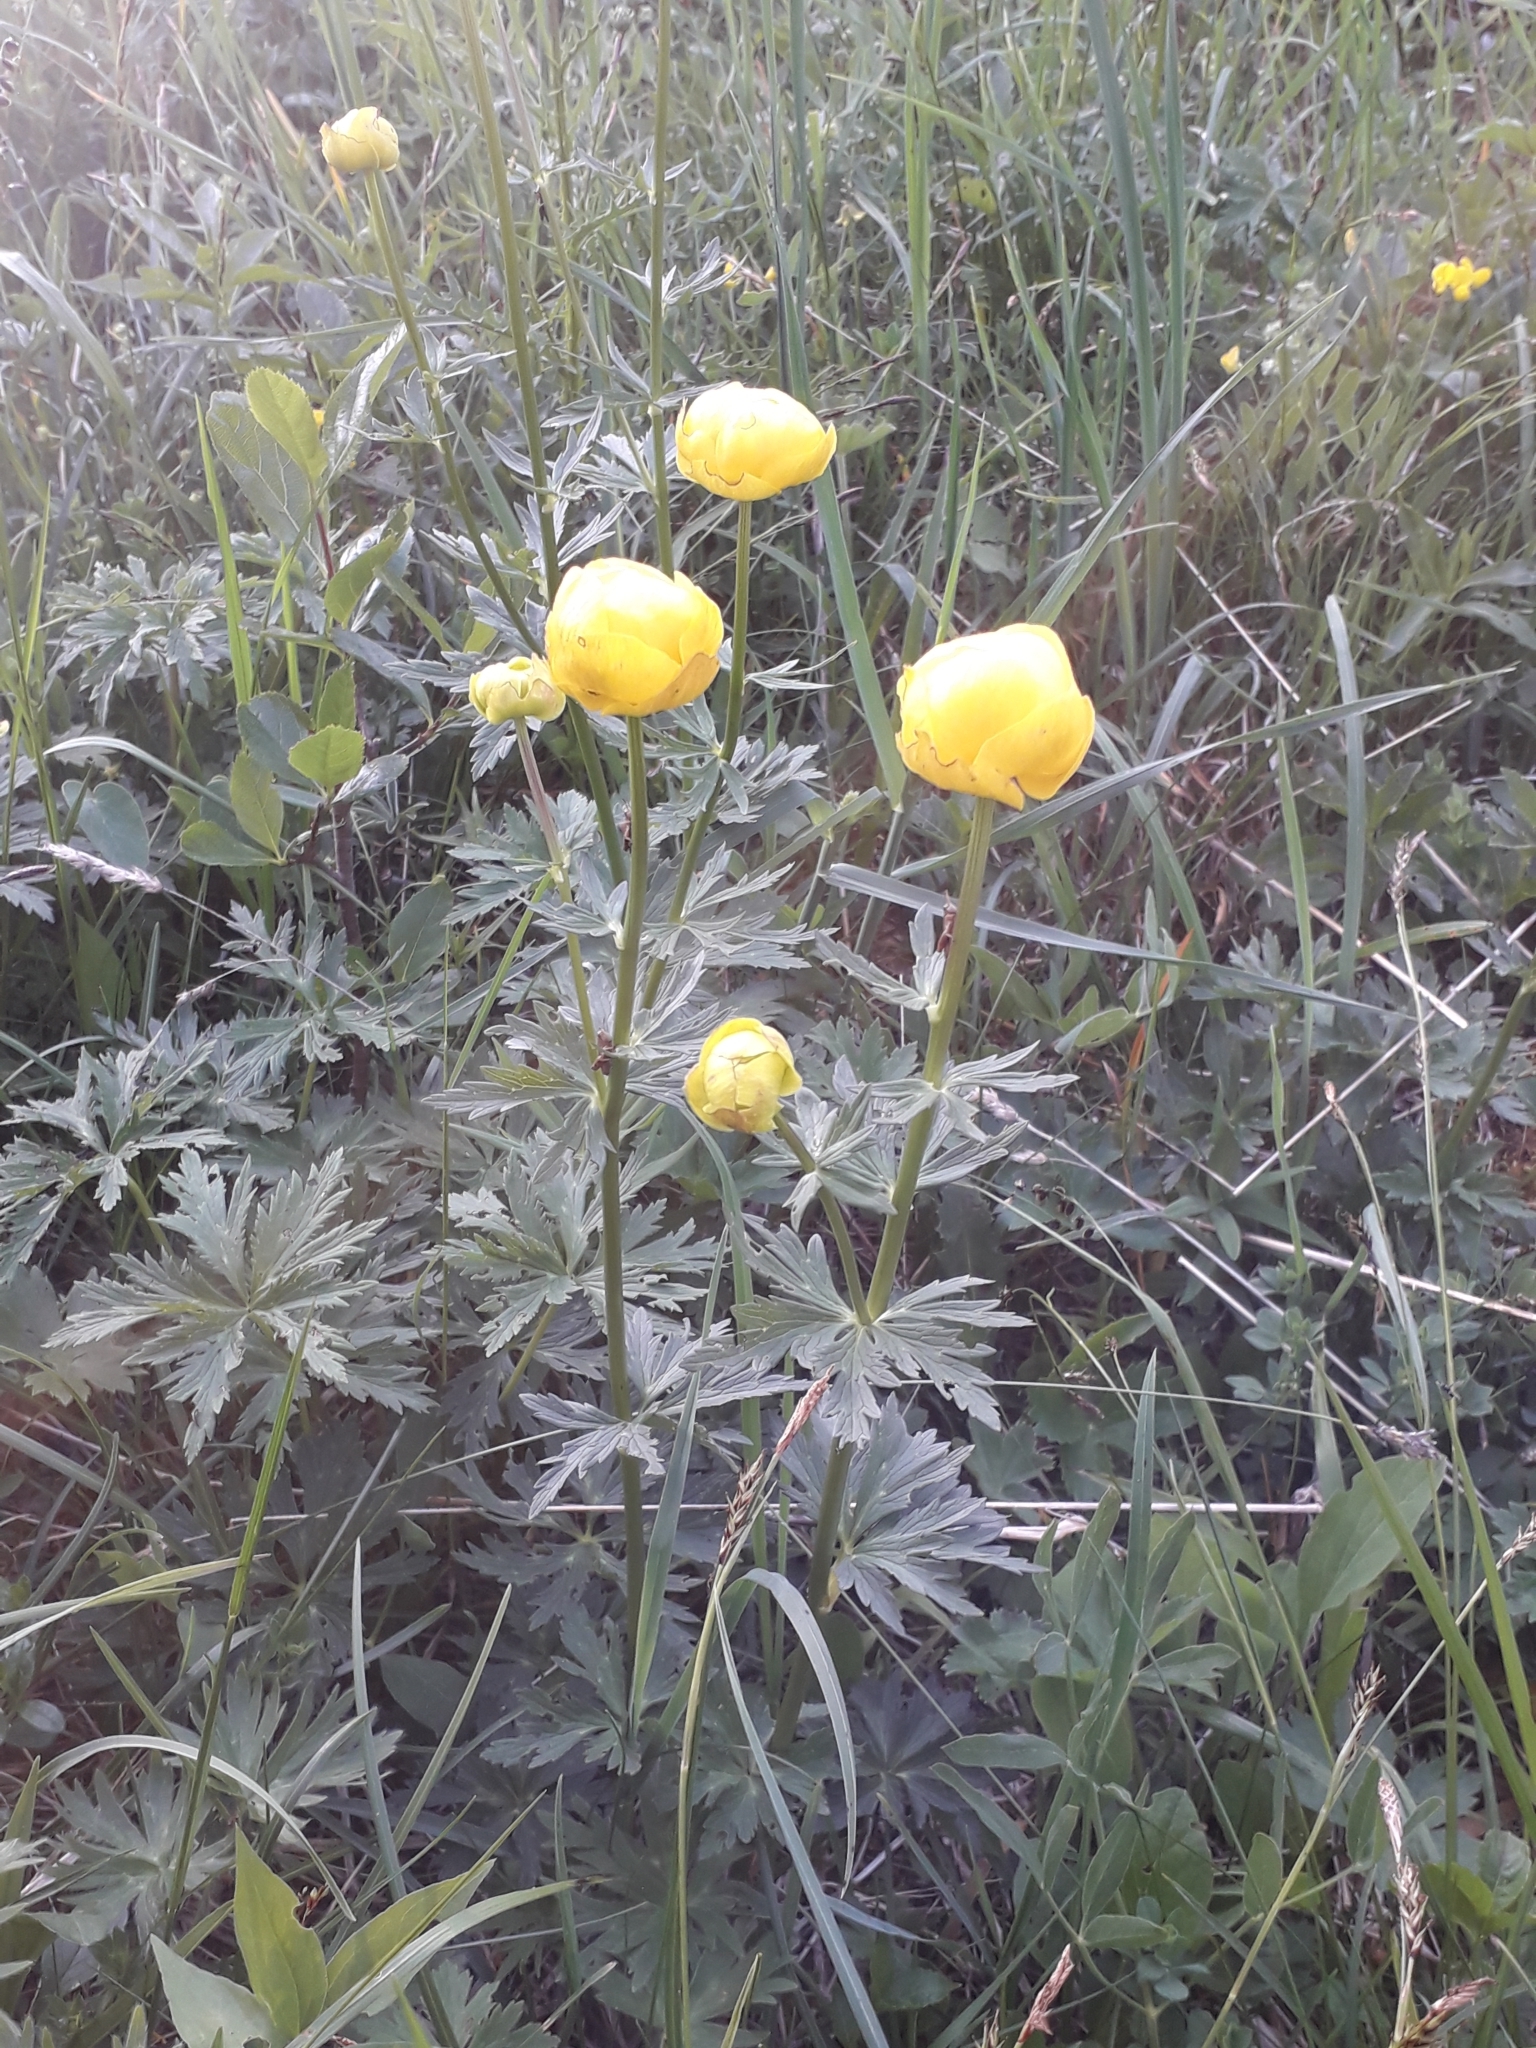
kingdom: Plantae
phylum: Tracheophyta
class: Magnoliopsida
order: Ranunculales
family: Ranunculaceae
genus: Trollius
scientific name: Trollius europaeus
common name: European globeflower
